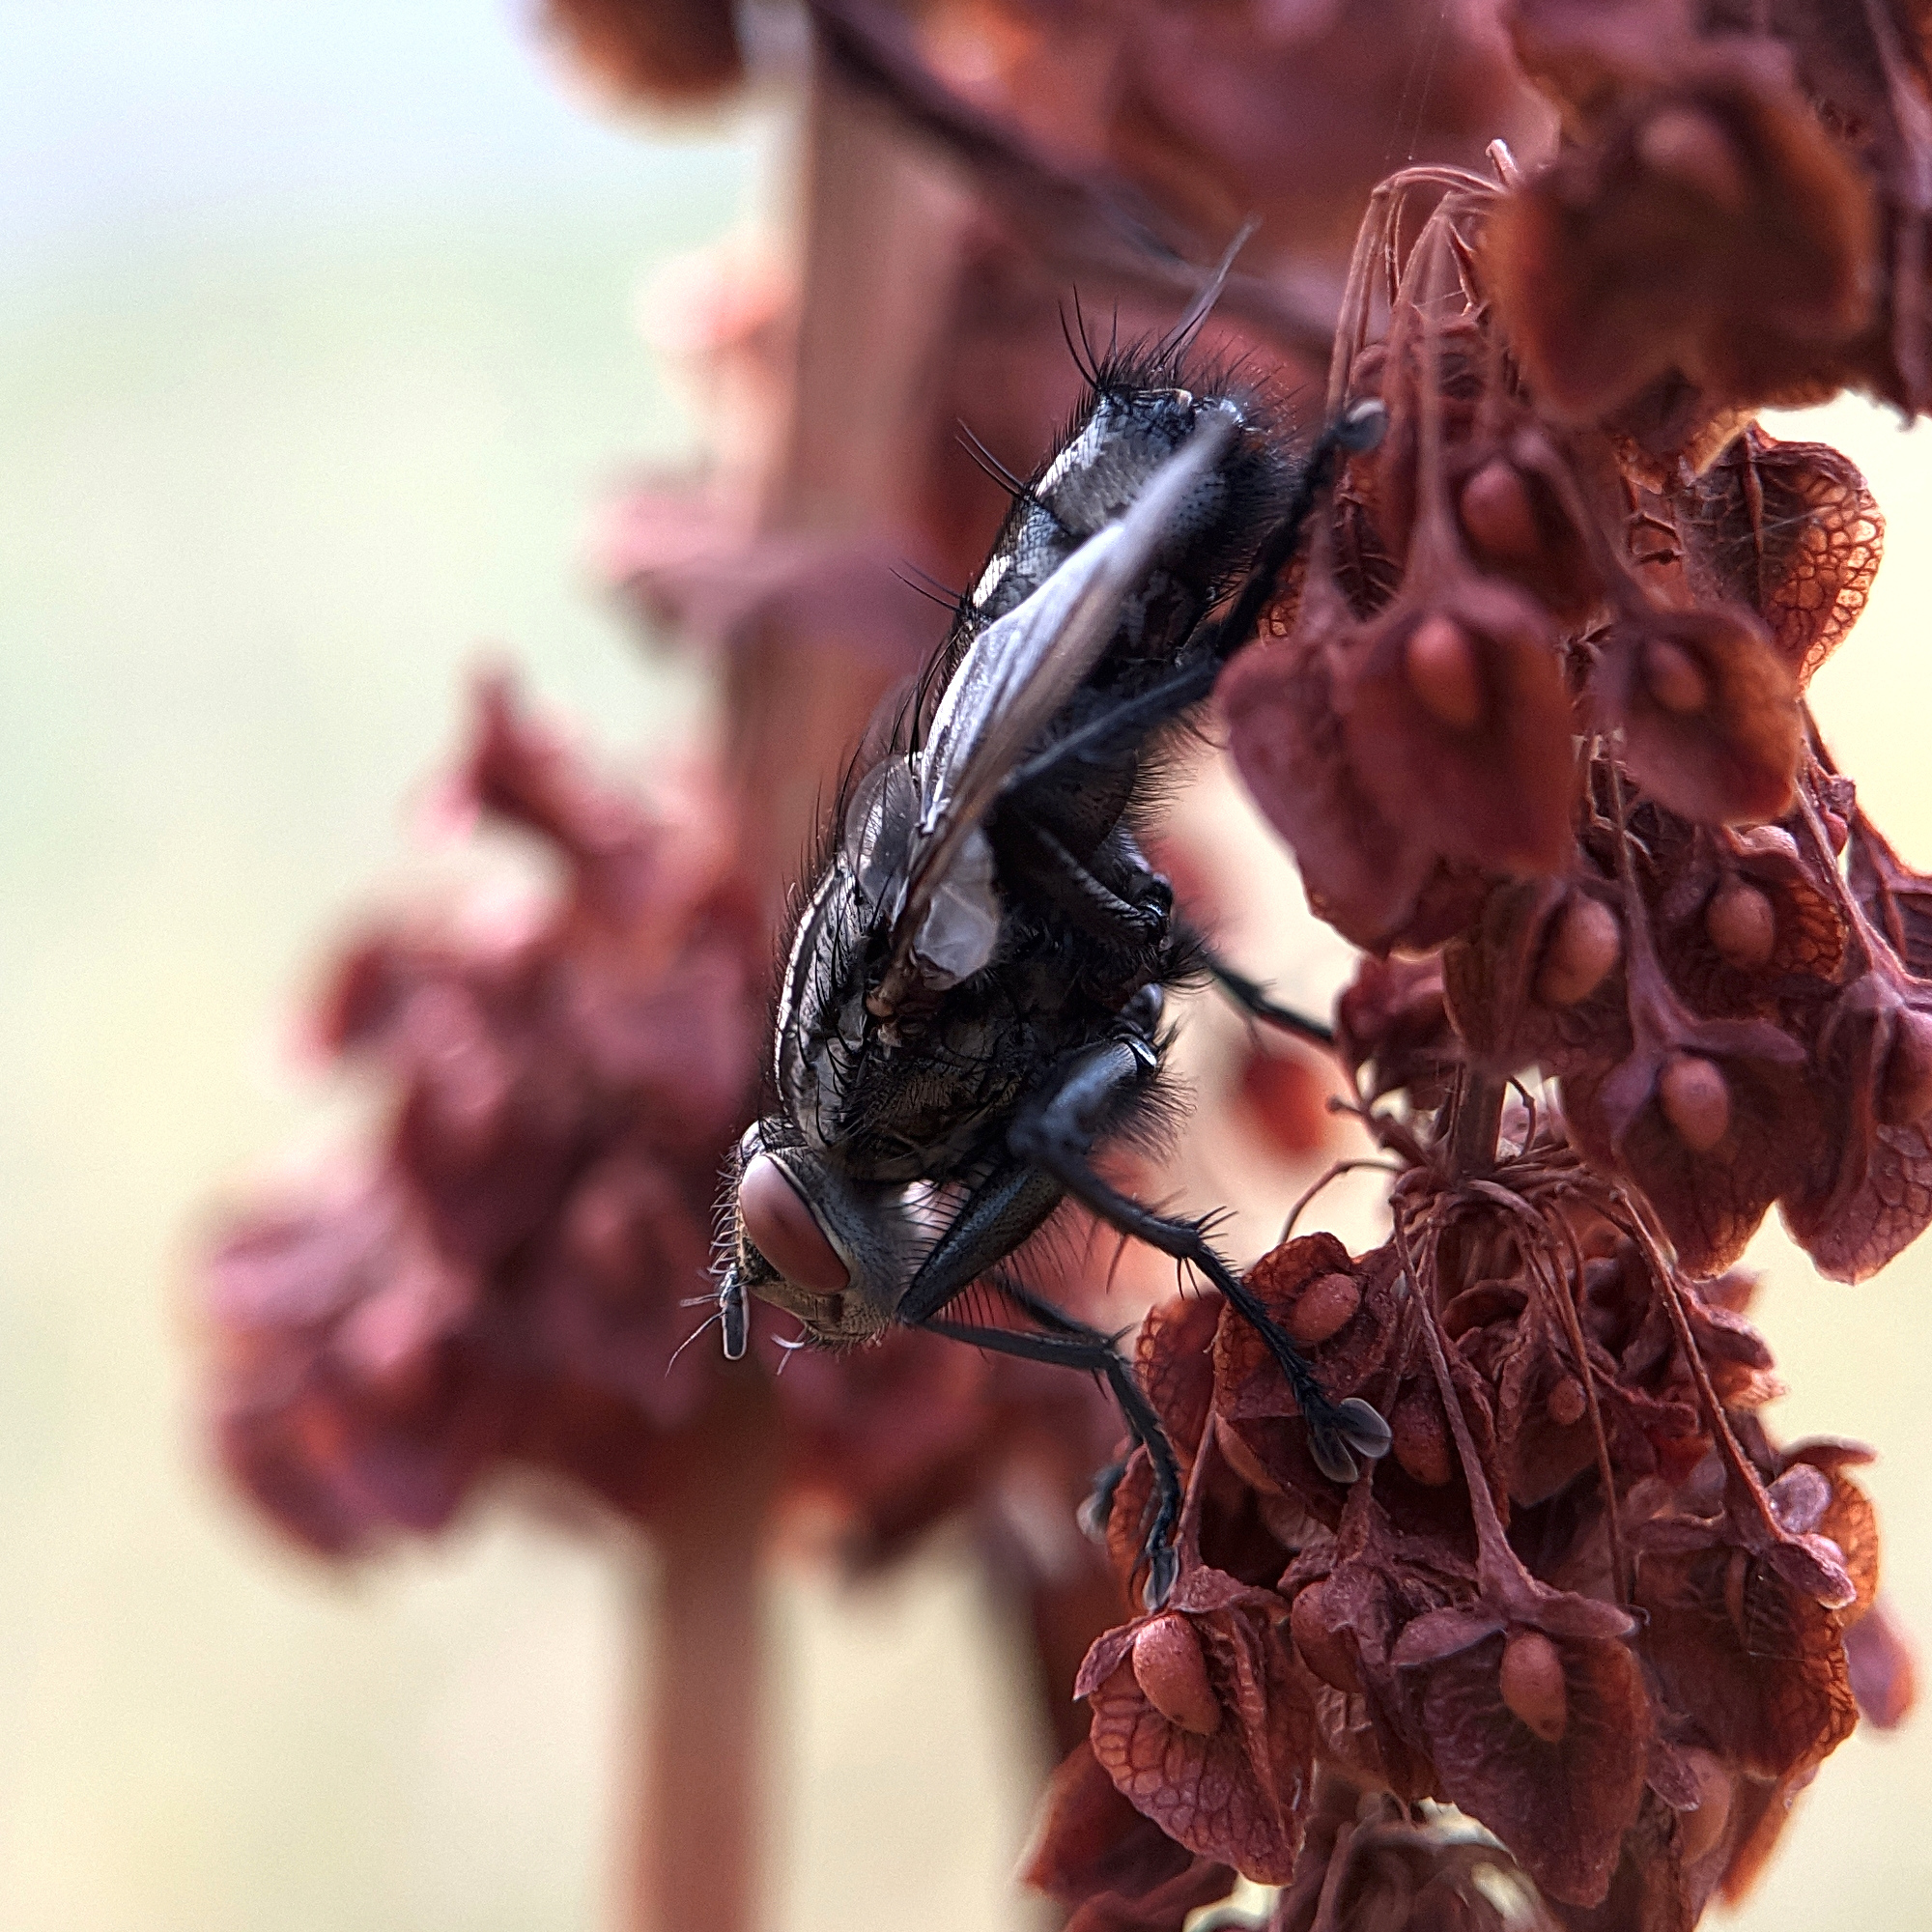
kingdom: Animalia
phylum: Arthropoda
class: Insecta
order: Diptera
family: Sarcophagidae
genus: Sarcophaga
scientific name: Sarcophaga
